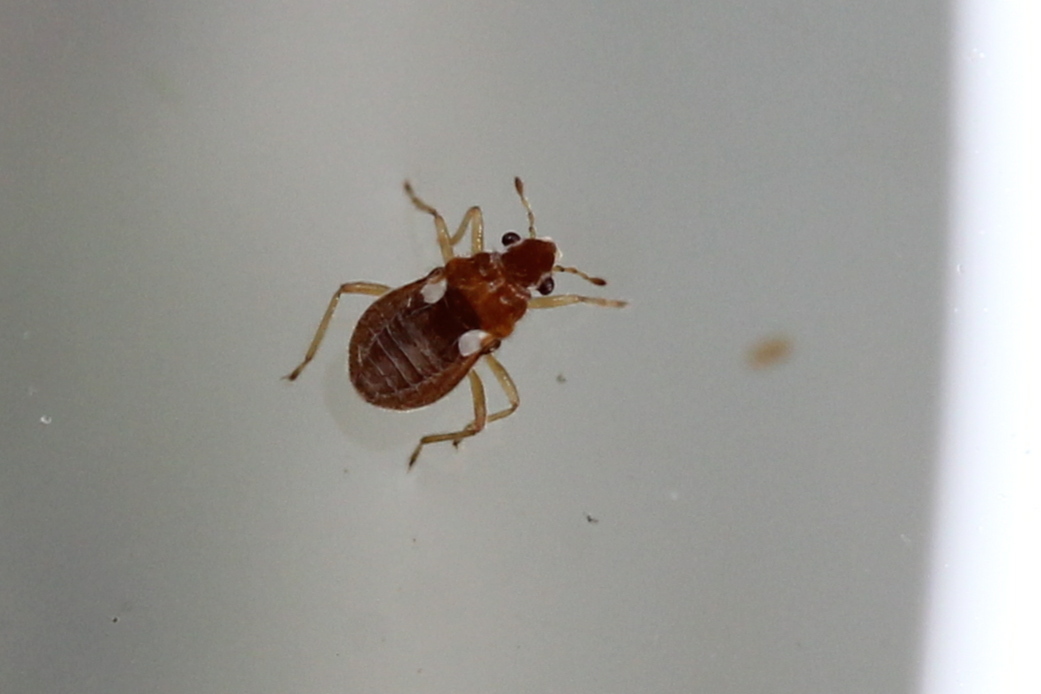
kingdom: Animalia
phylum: Arthropoda
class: Insecta
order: Hemiptera
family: Hebridae
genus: Merragata
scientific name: Merragata brunnea
